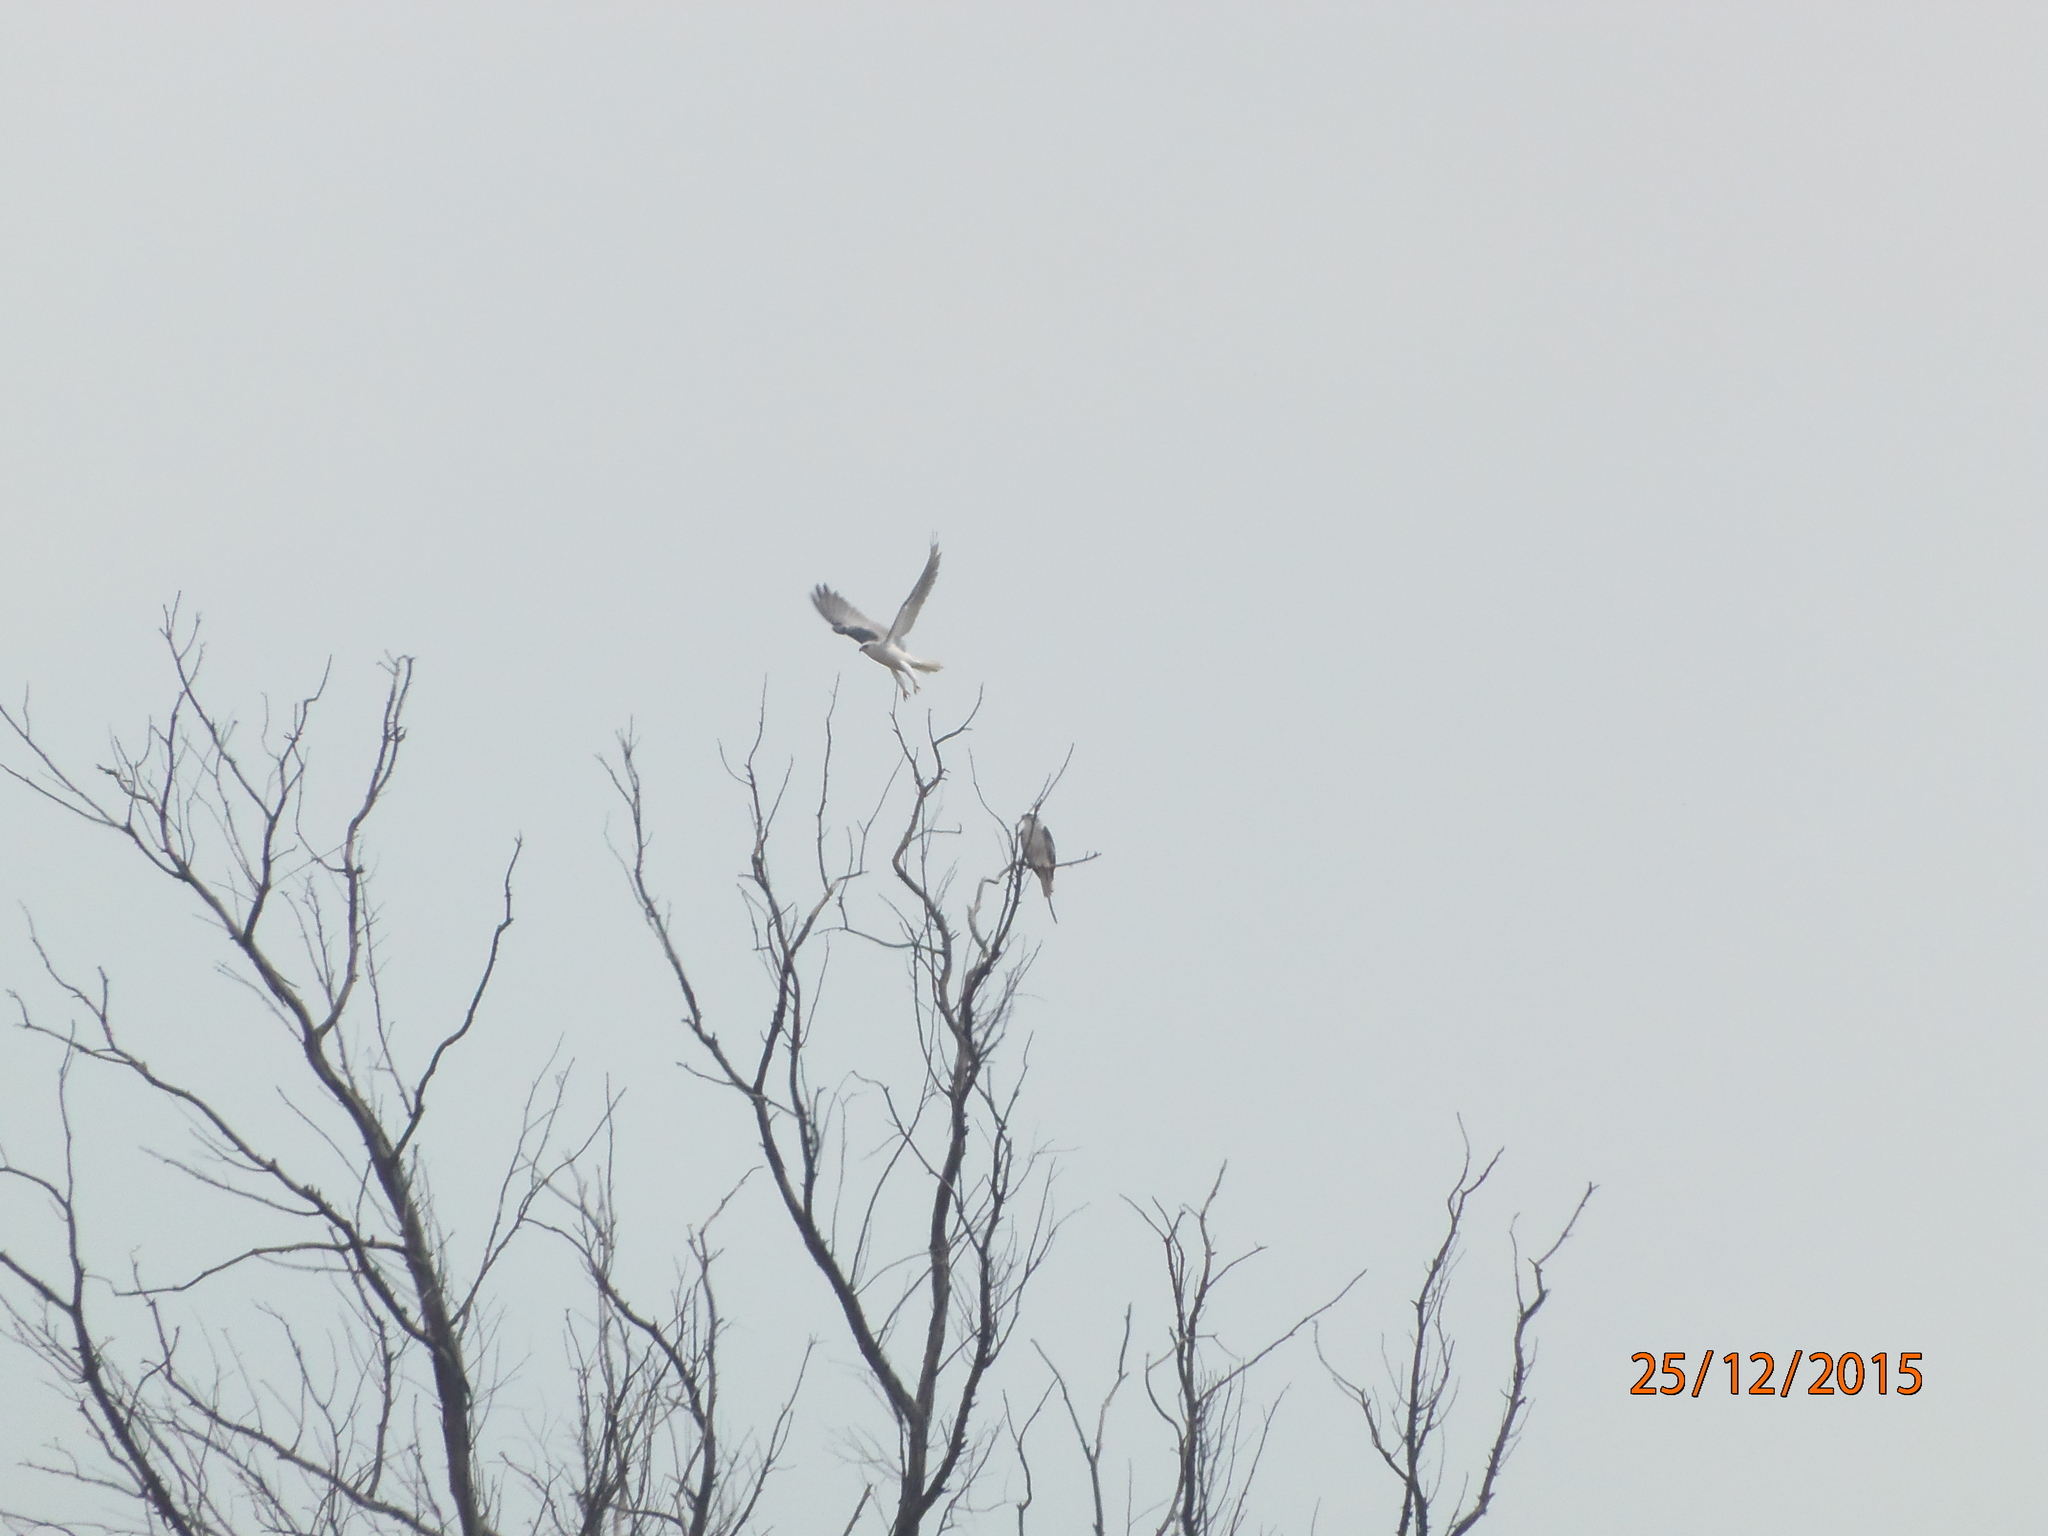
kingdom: Animalia
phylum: Chordata
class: Aves
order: Accipitriformes
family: Accipitridae
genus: Elanus
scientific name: Elanus leucurus
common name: White-tailed kite
